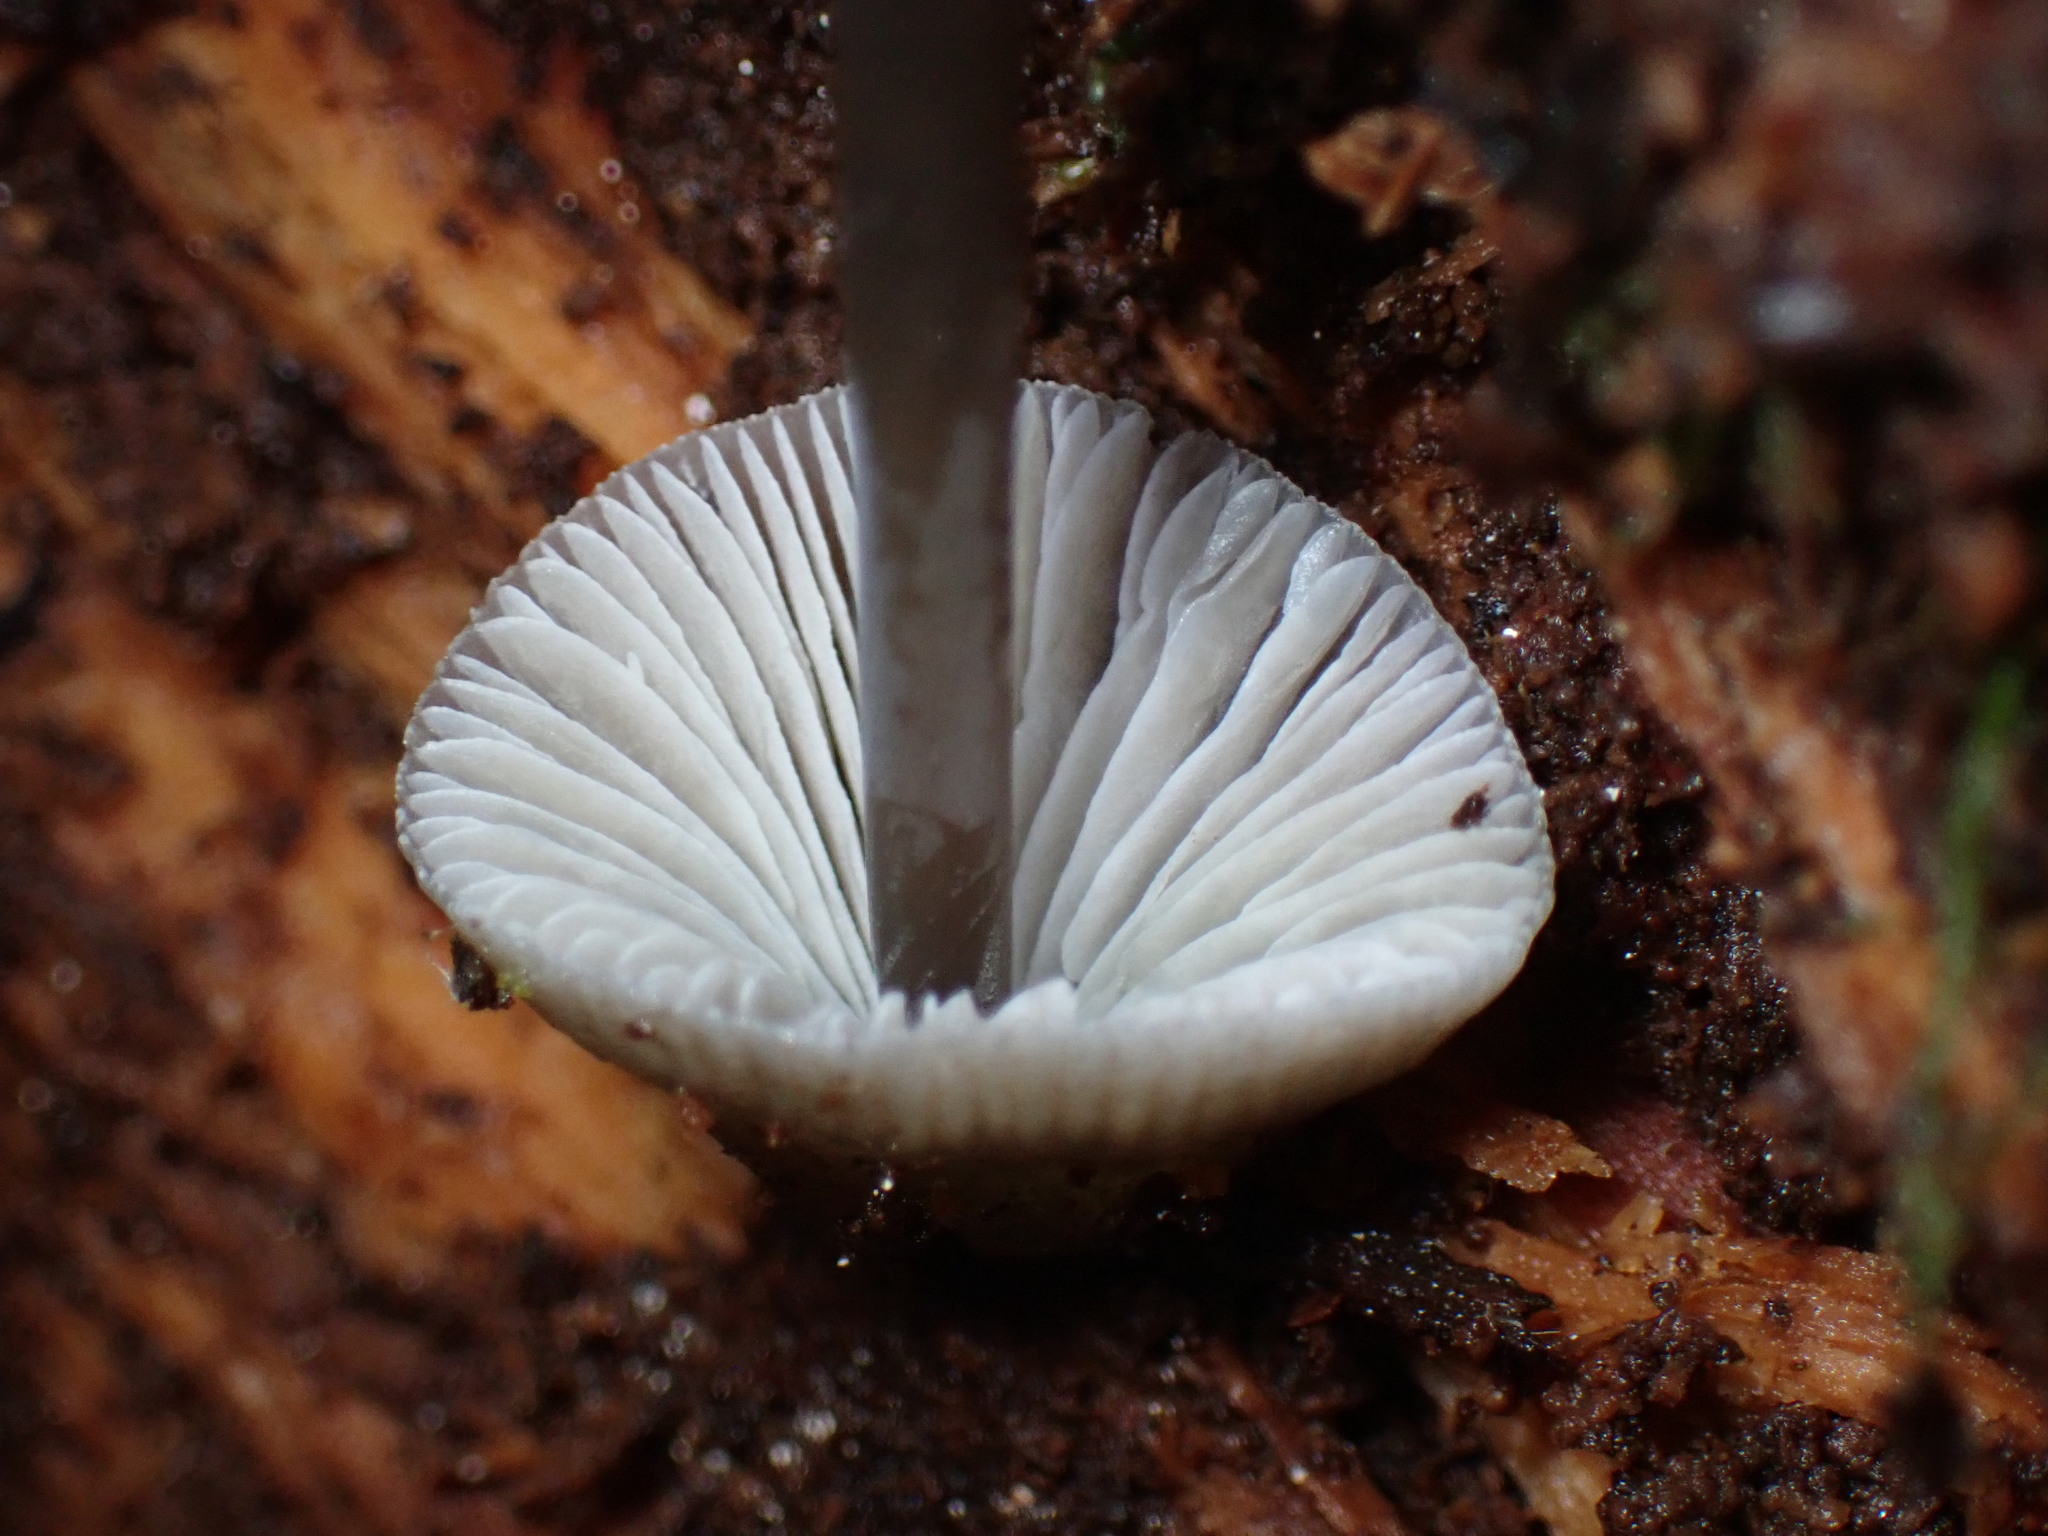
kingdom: Fungi
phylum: Basidiomycota
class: Agaricomycetes
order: Agaricales
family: Mycenaceae
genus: Mycena
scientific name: Mycena amicta
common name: Coldfoot bonnet
